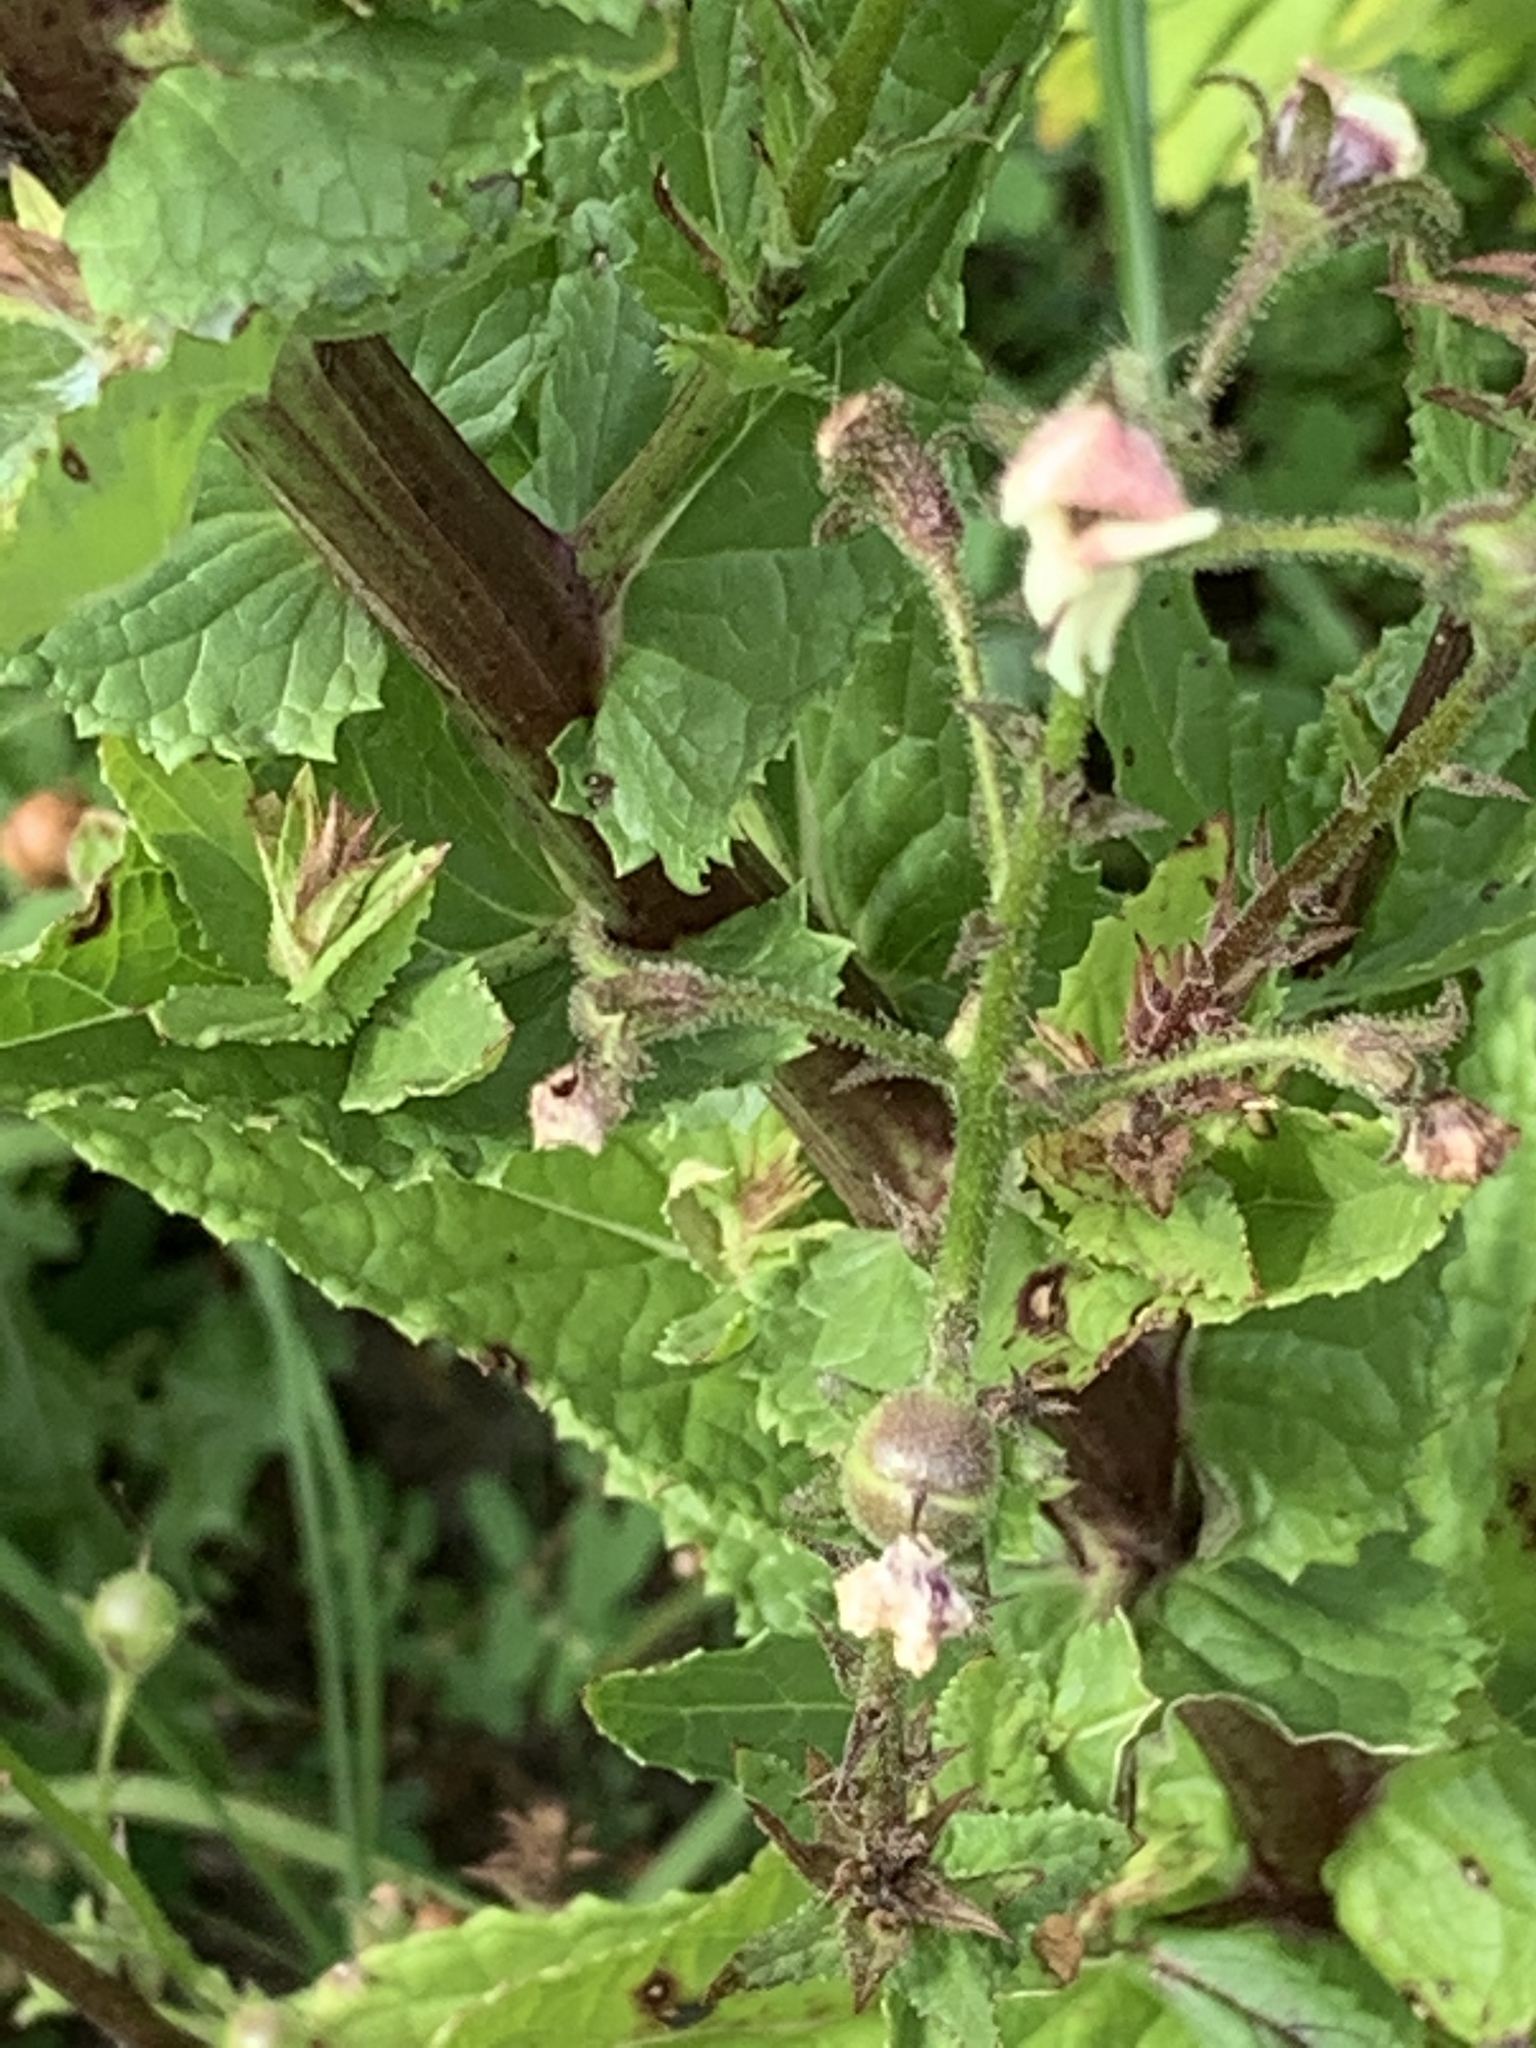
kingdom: Plantae
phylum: Tracheophyta
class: Magnoliopsida
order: Lamiales
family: Scrophulariaceae
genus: Verbascum
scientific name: Verbascum blattaria
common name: Moth mullein
